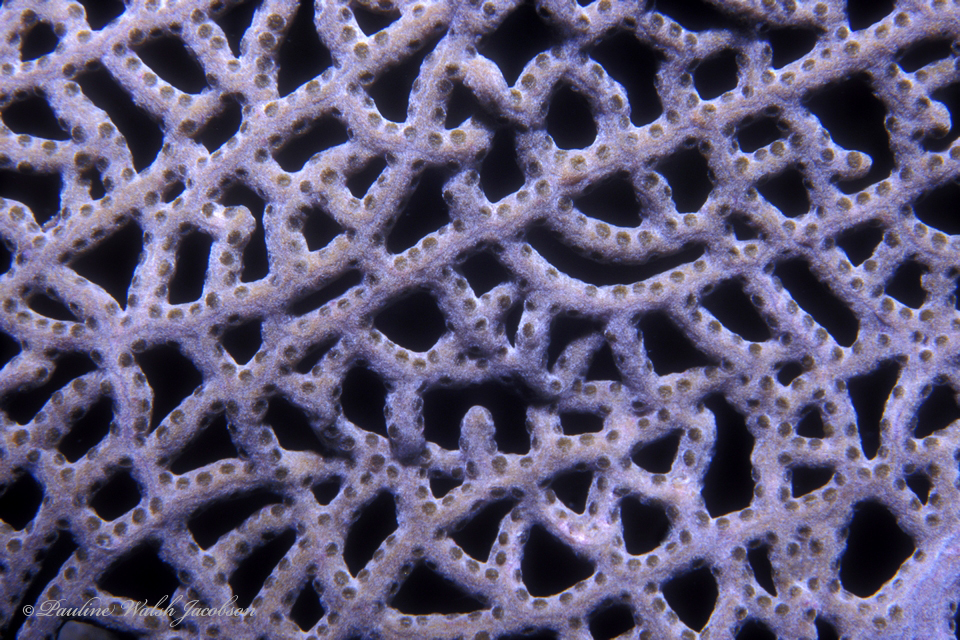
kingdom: Animalia
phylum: Cnidaria
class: Anthozoa
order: Malacalcyonacea
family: Gorgoniidae
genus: Gorgonia
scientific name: Gorgonia ventalina
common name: Common sea fan
